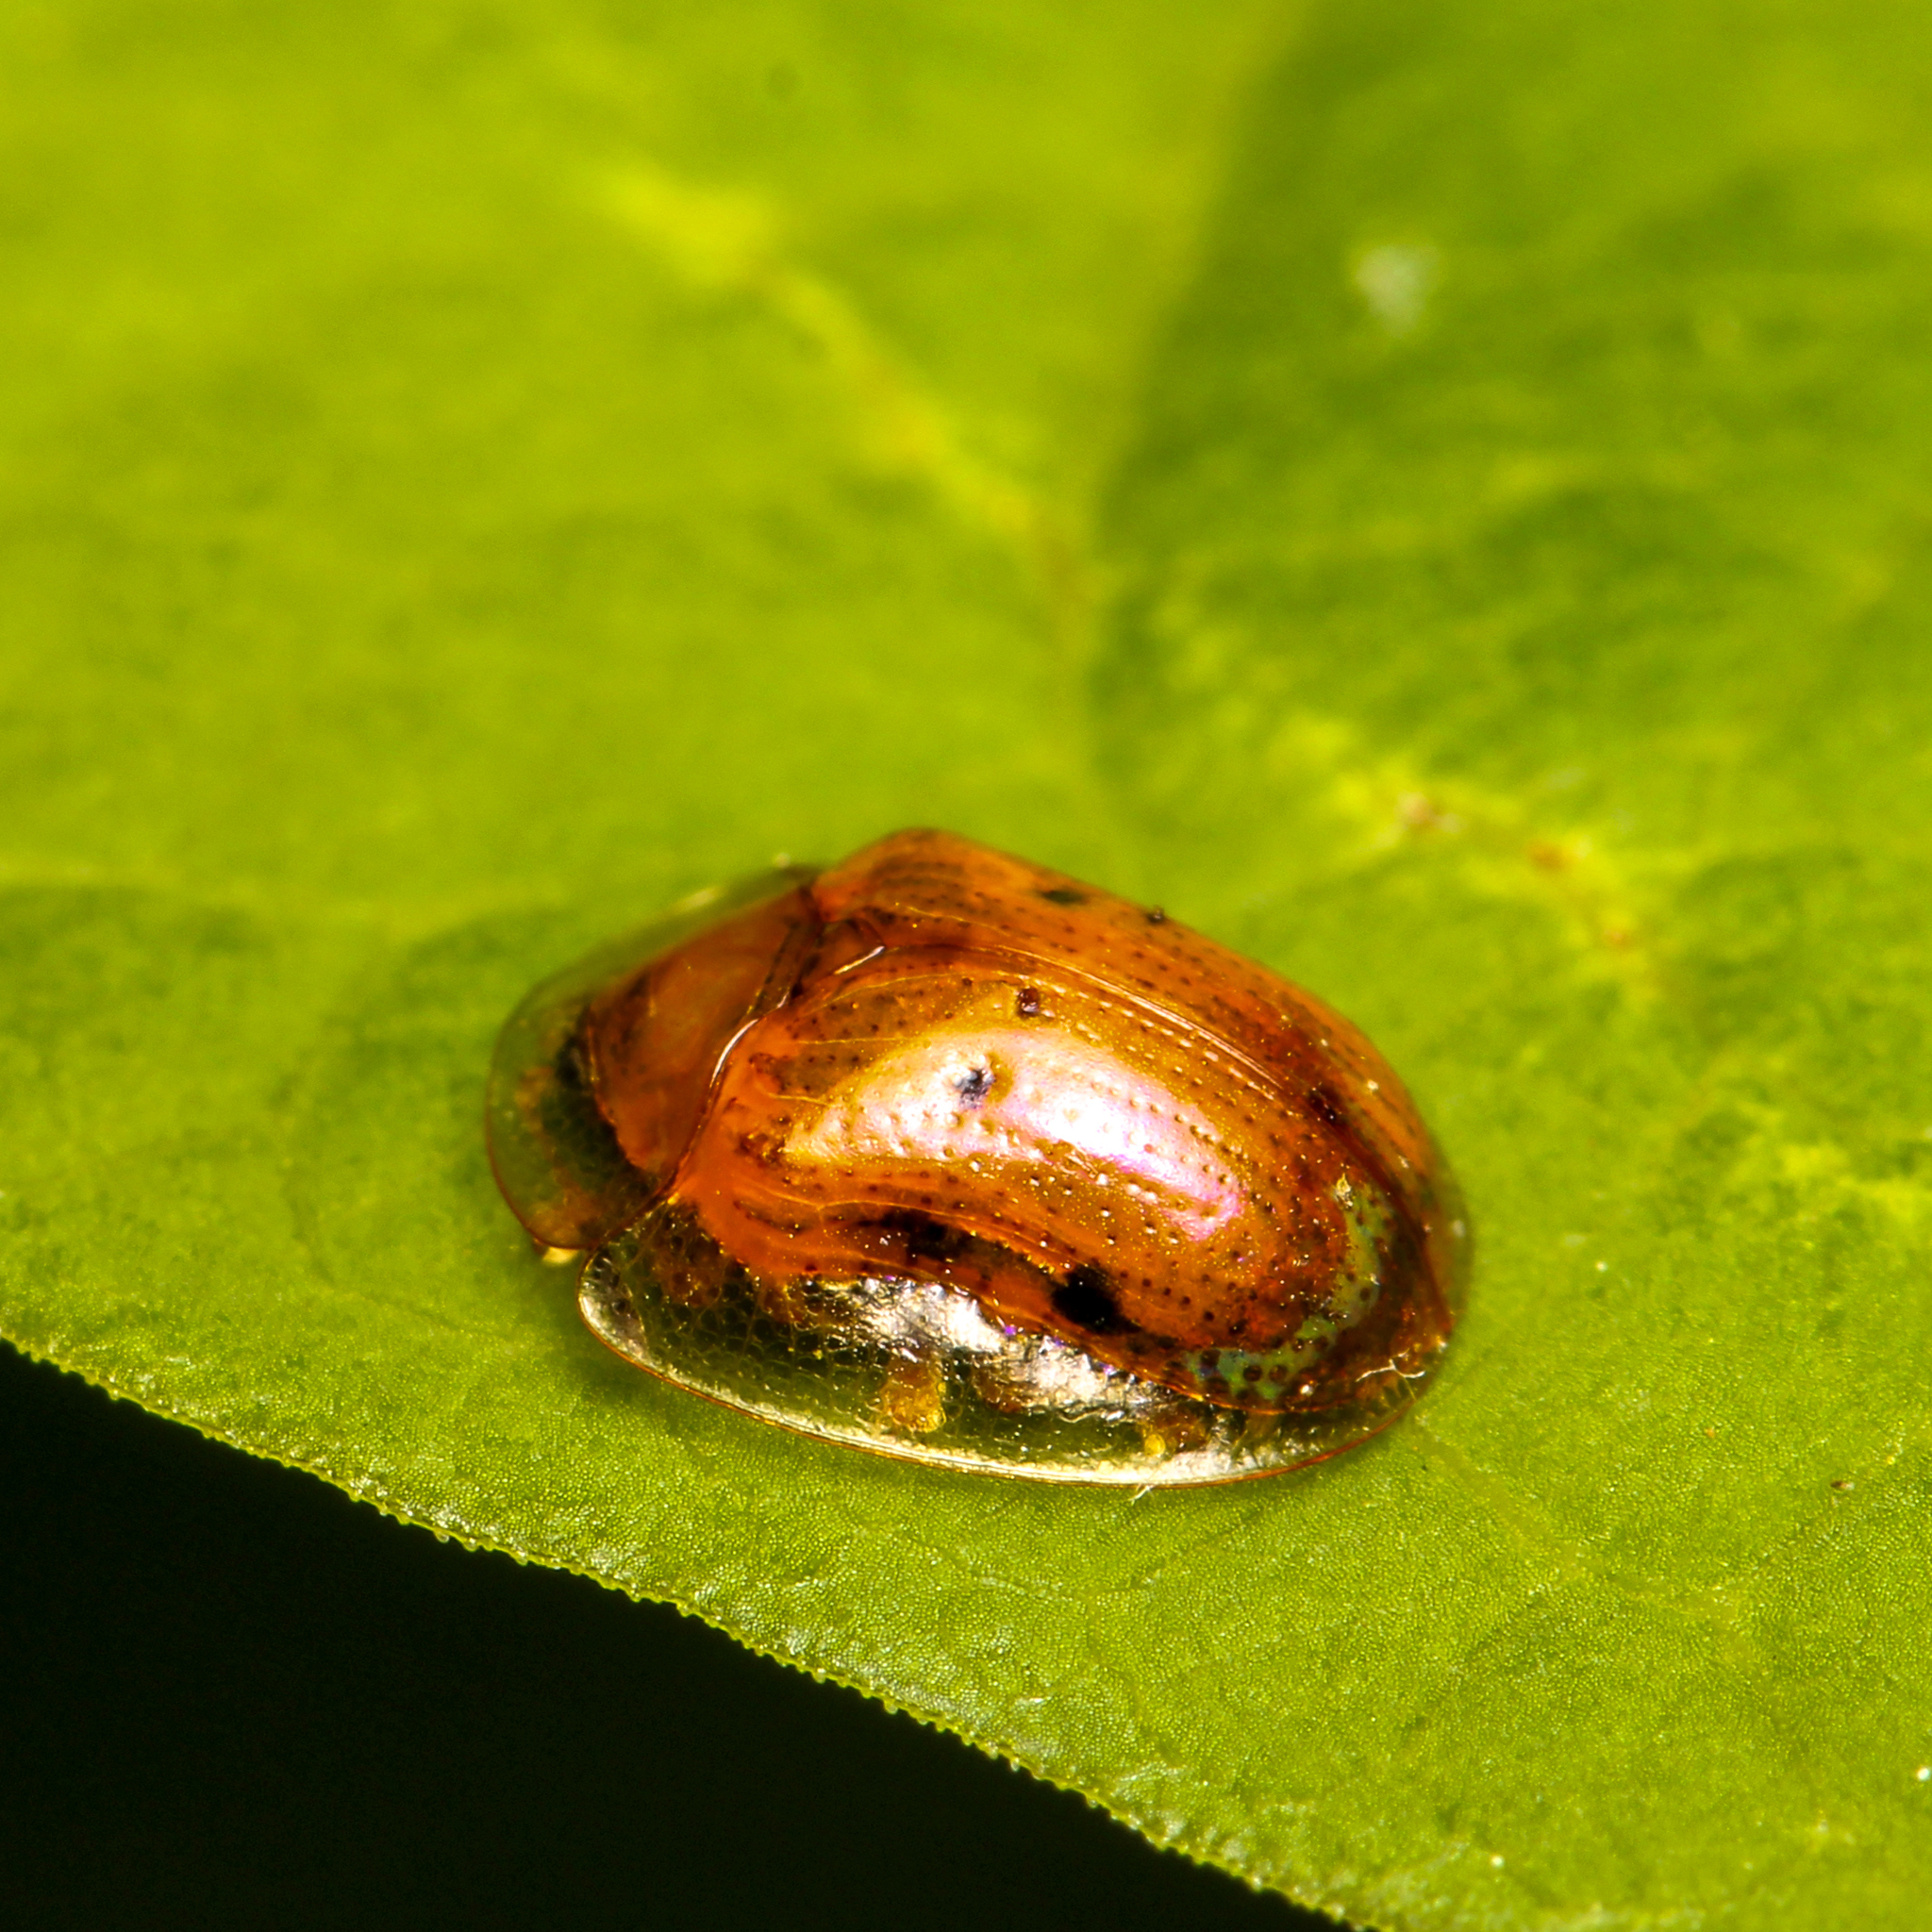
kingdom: Animalia
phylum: Arthropoda
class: Insecta
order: Coleoptera
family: Chrysomelidae
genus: Charidotella
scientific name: Charidotella sexpunctata
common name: Golden tortoise beetle
